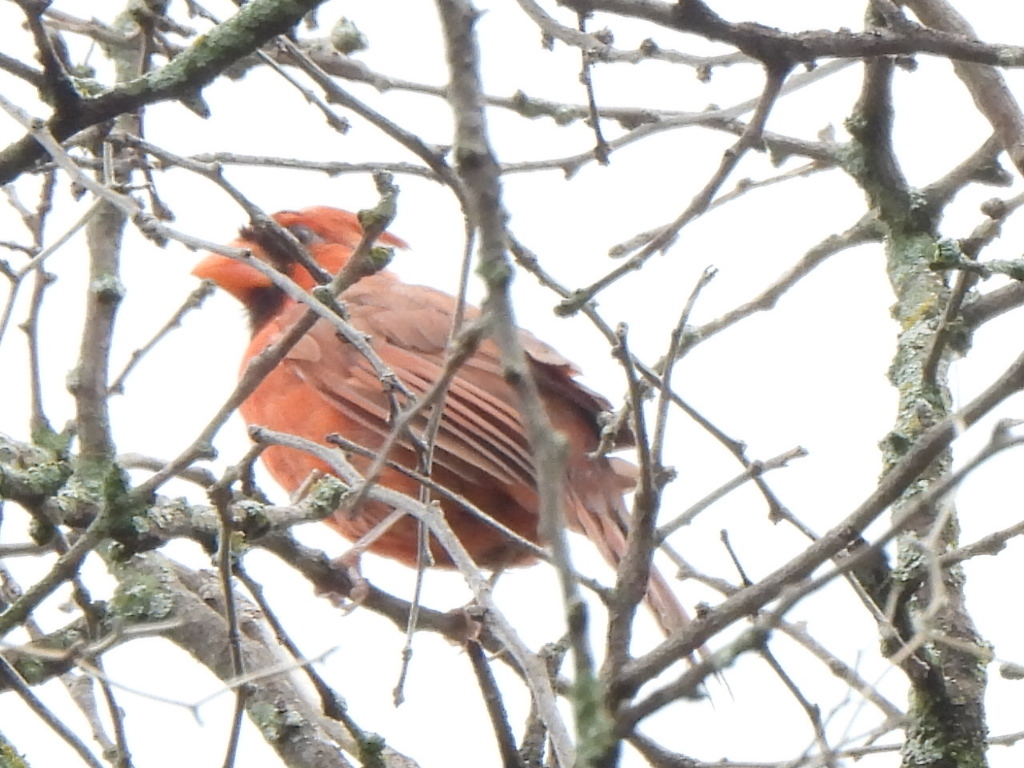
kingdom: Animalia
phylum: Chordata
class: Aves
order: Passeriformes
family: Cardinalidae
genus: Cardinalis
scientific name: Cardinalis cardinalis
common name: Northern cardinal
